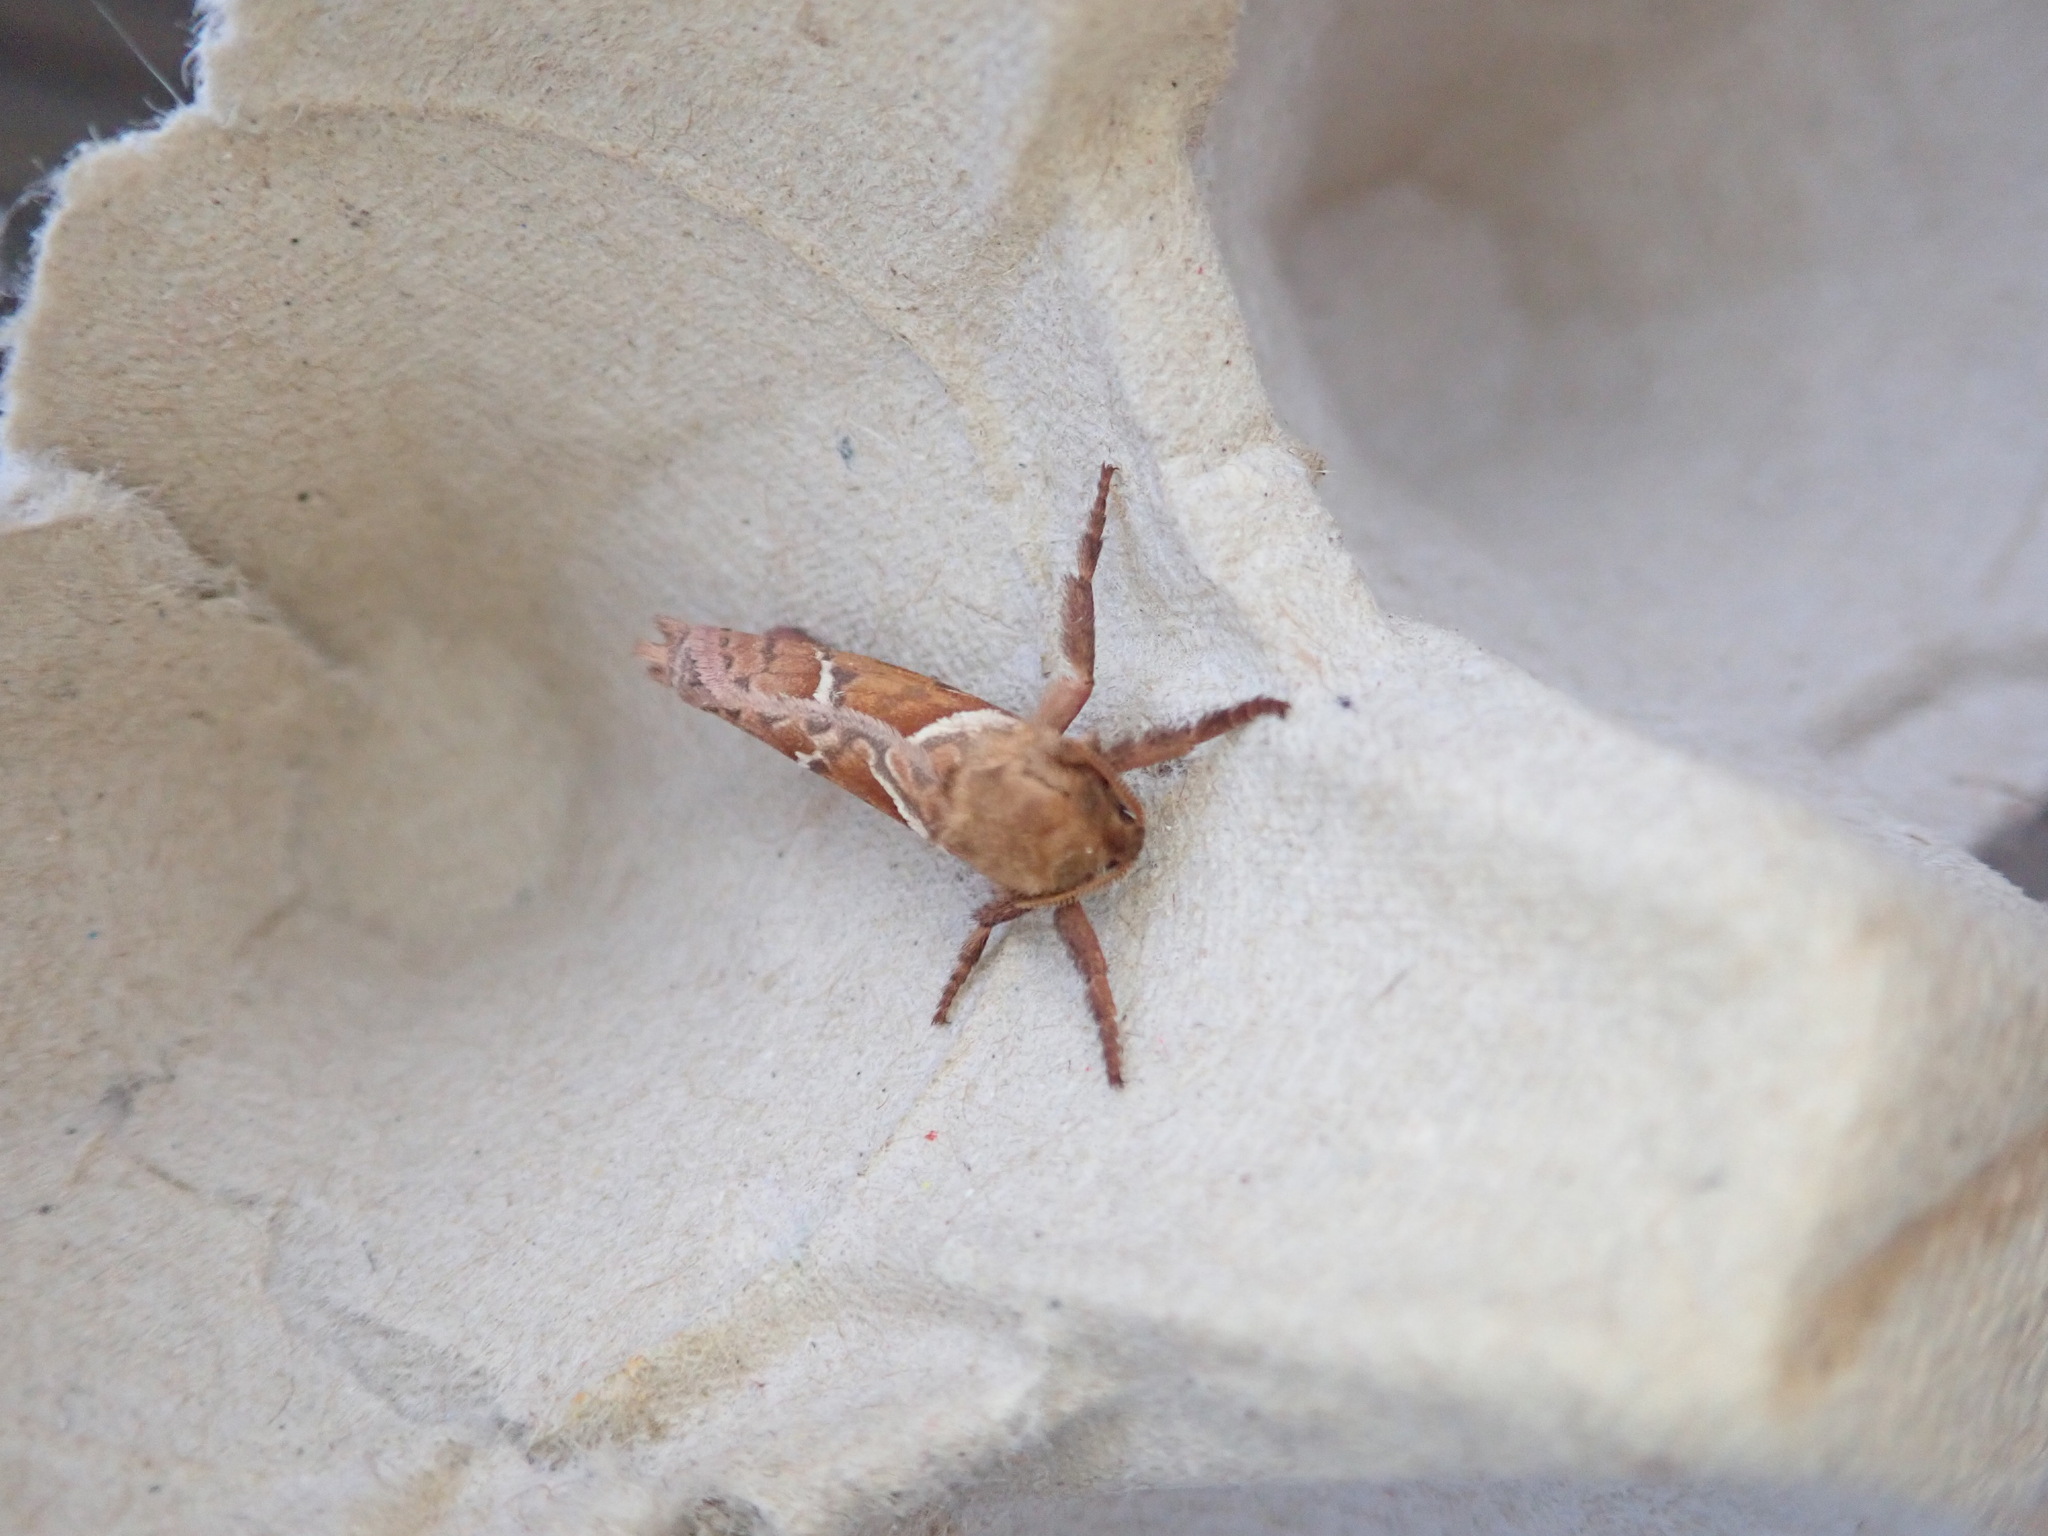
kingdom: Animalia
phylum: Arthropoda
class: Insecta
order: Lepidoptera
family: Hepialidae
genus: Triodia
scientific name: Triodia sylvina
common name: Orange swift
